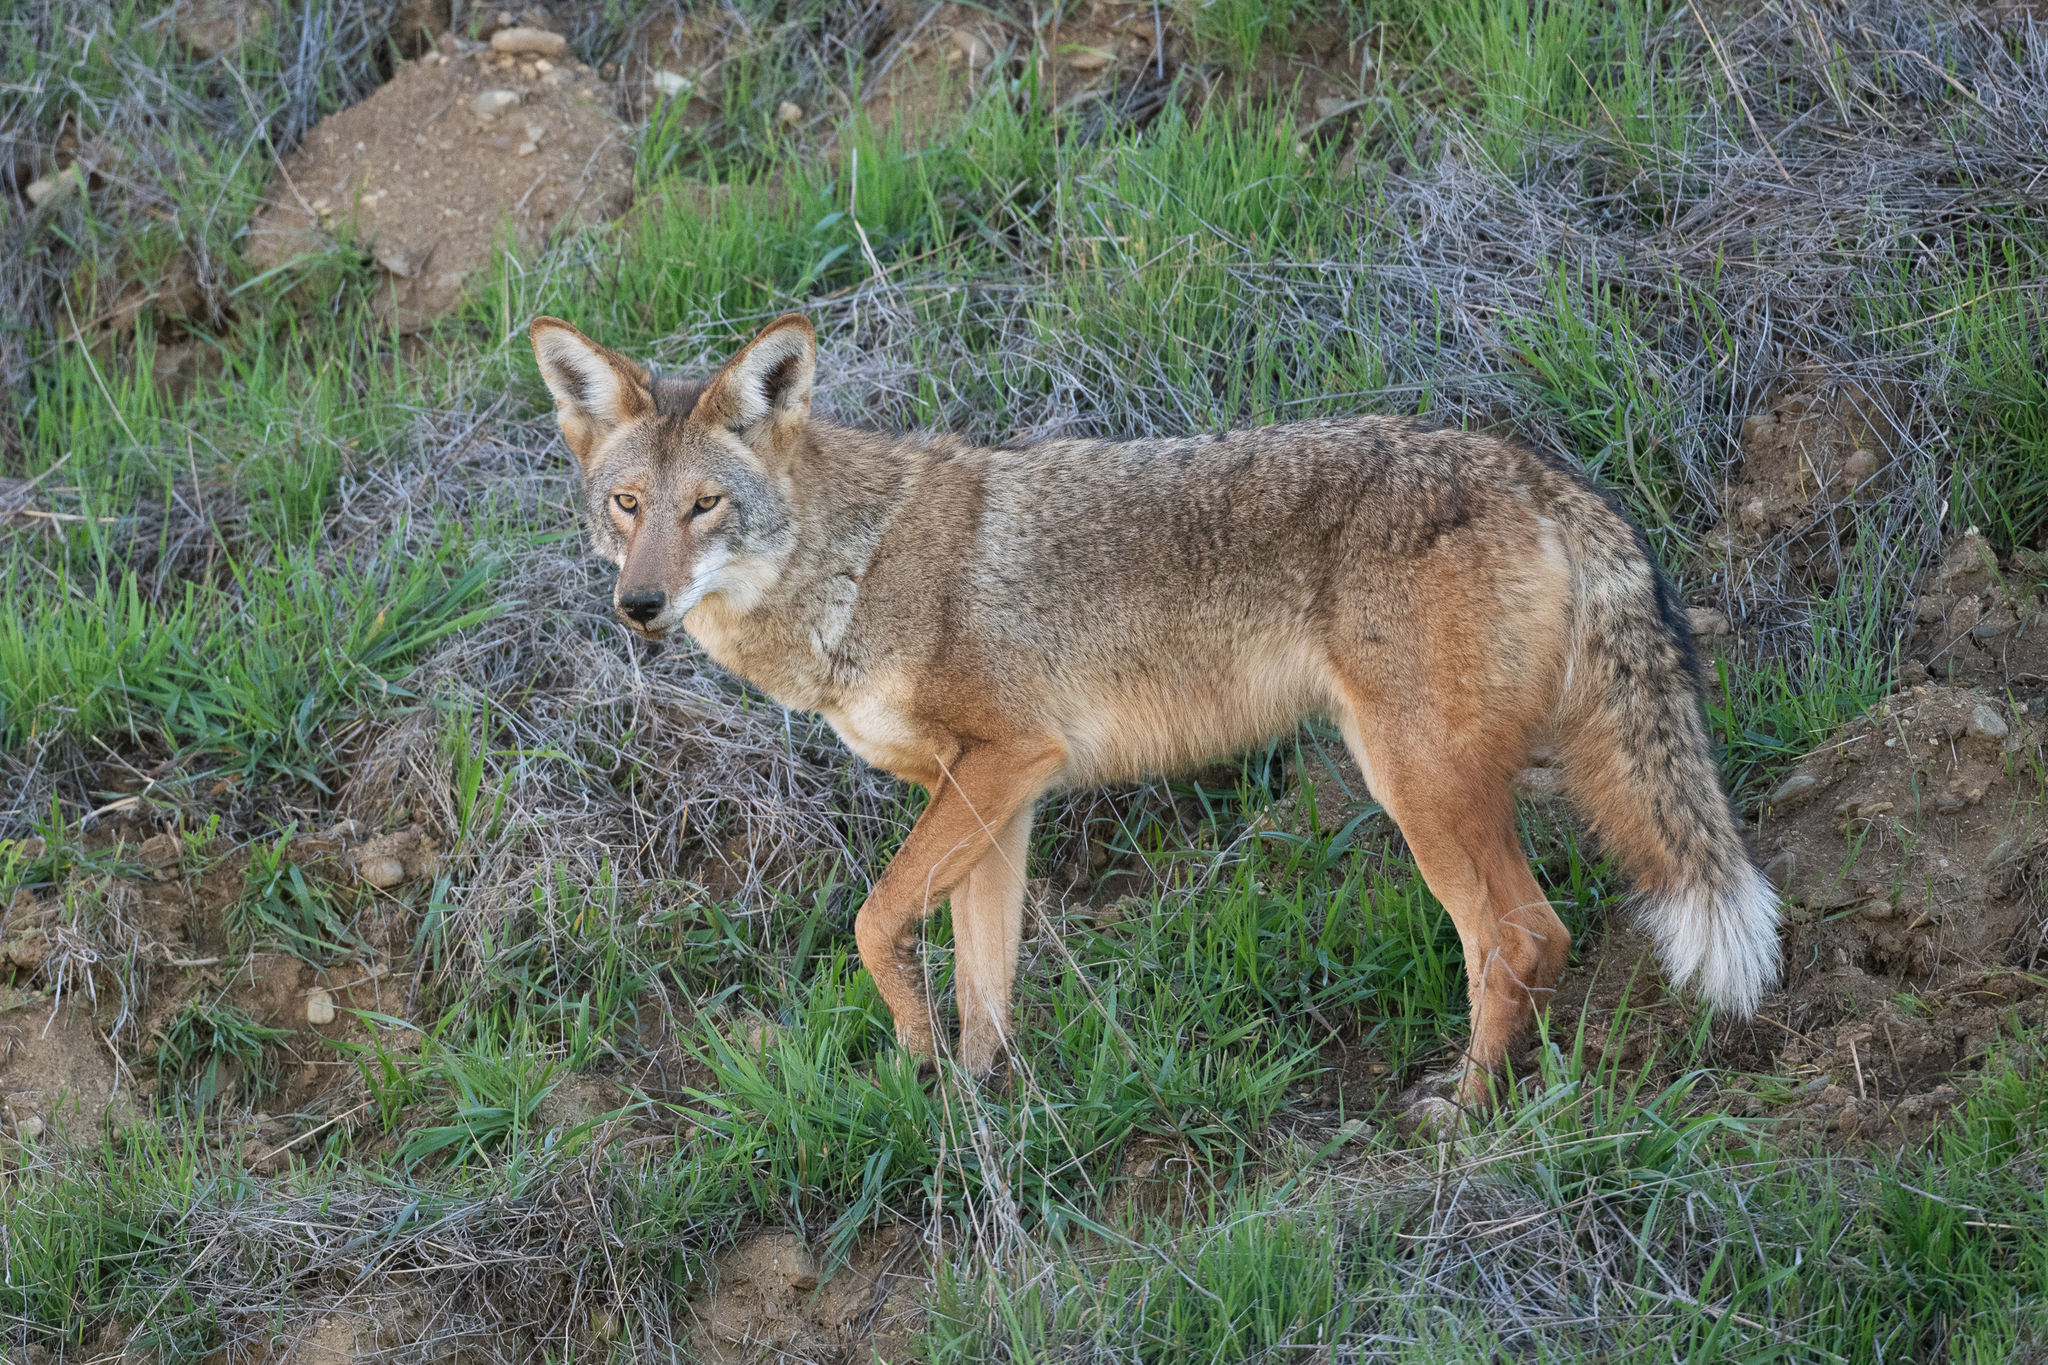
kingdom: Animalia
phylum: Chordata
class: Mammalia
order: Carnivora
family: Canidae
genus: Canis
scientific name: Canis latrans
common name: Coyote
